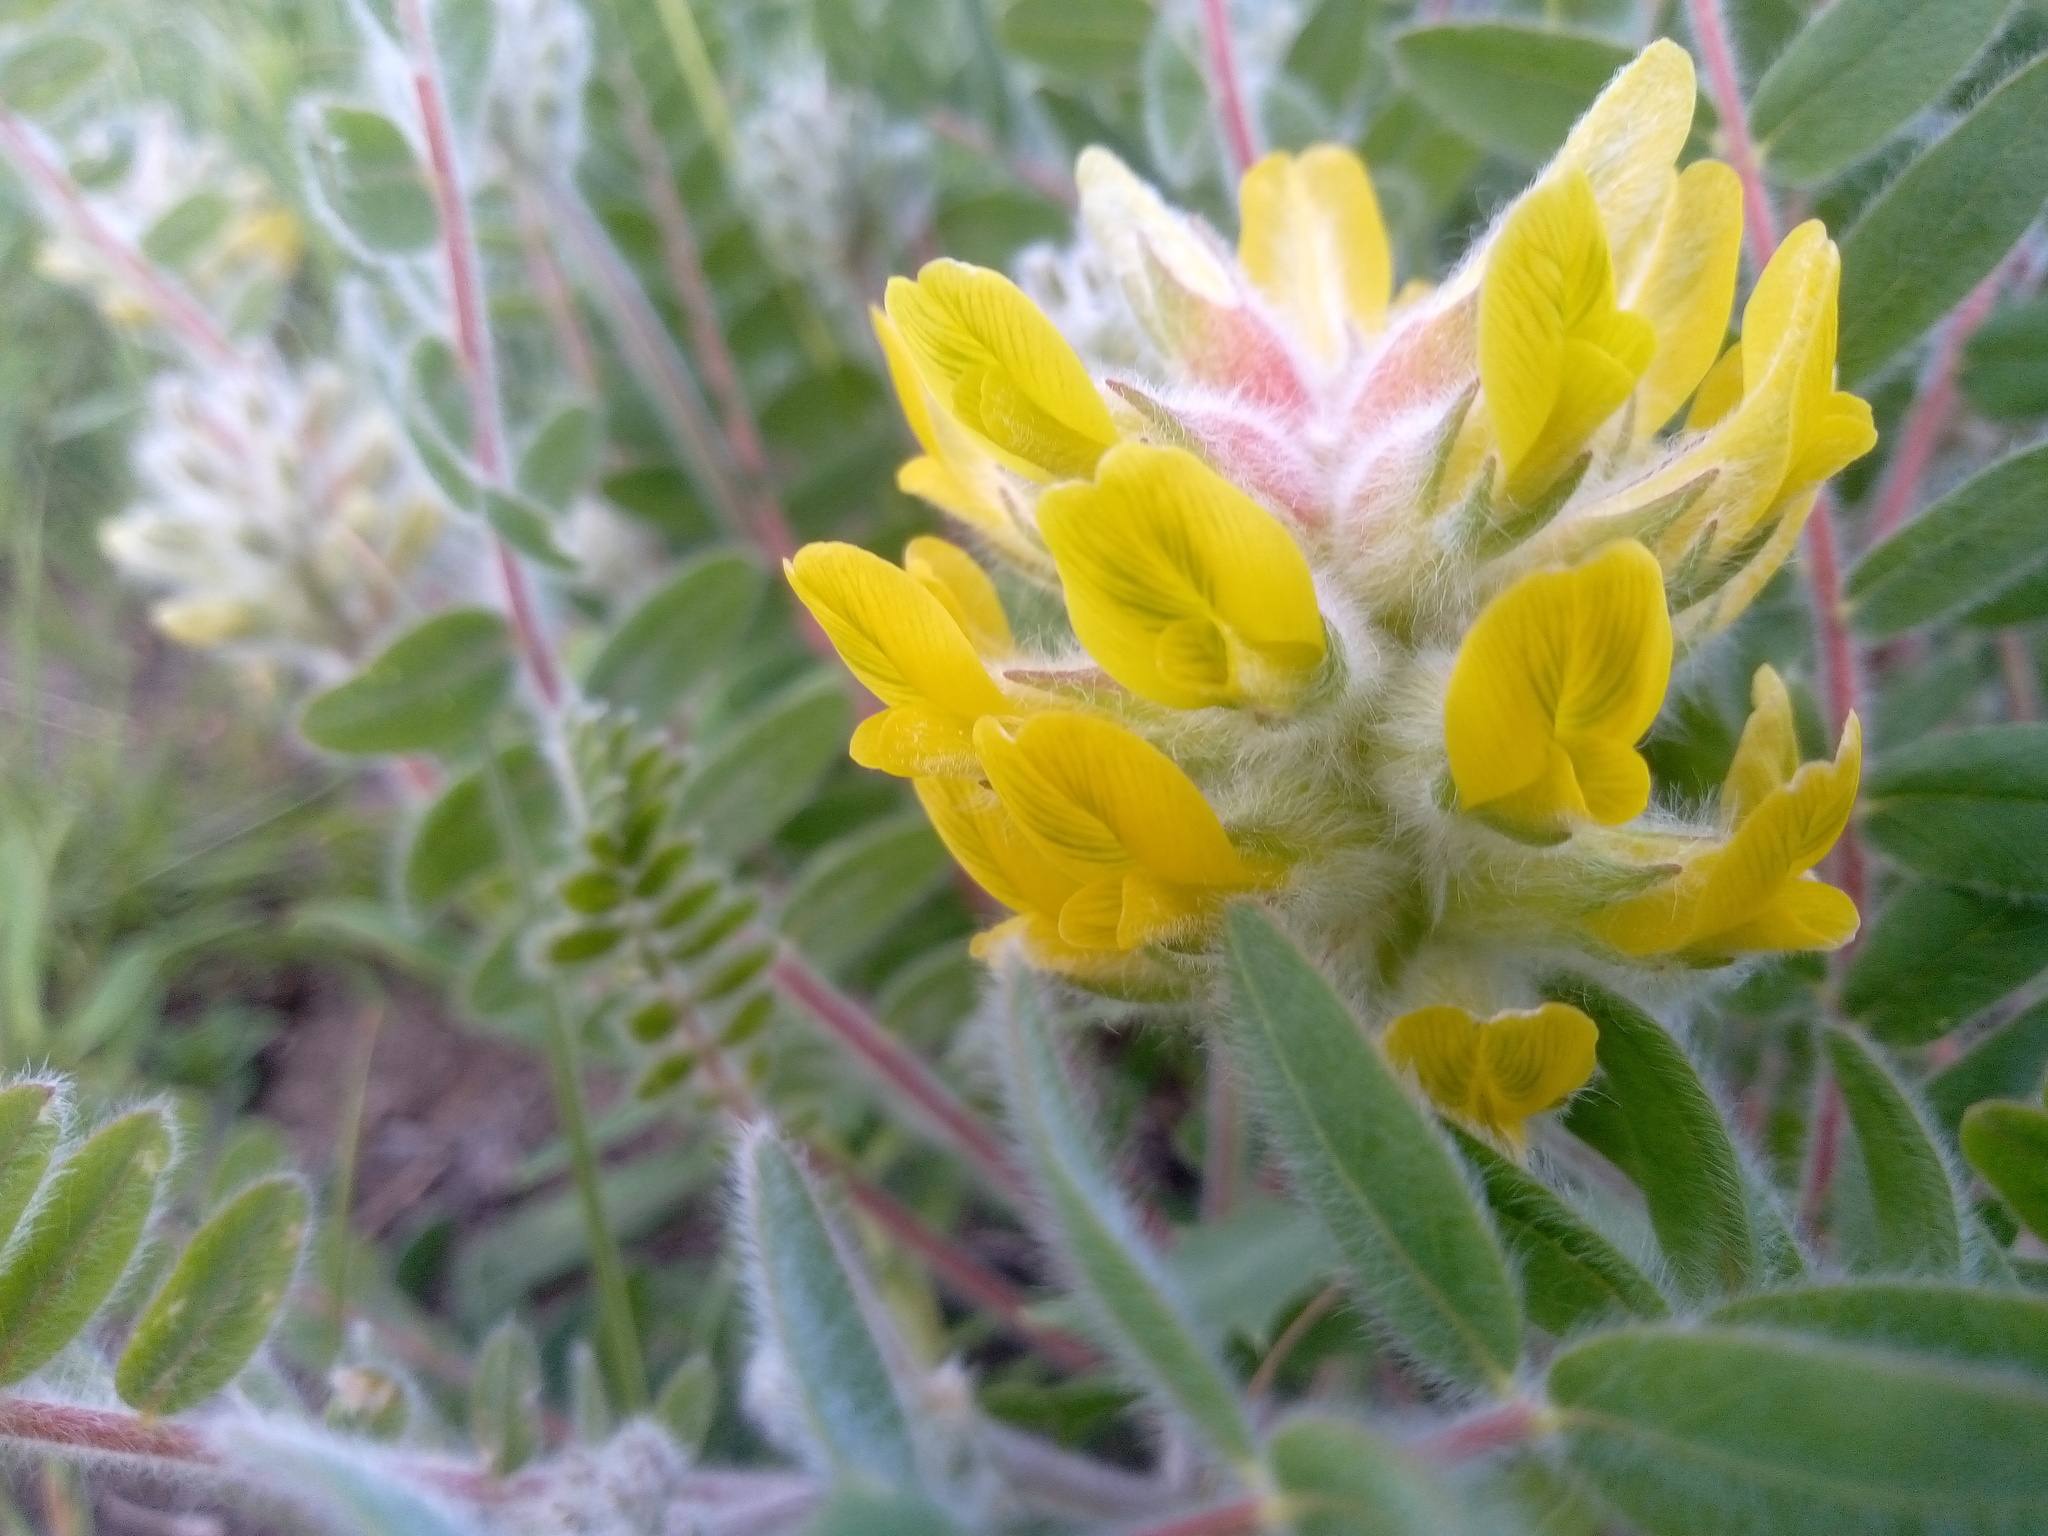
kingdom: Plantae
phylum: Tracheophyta
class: Magnoliopsida
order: Fabales
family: Fabaceae
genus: Astragalus
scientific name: Astragalus dasyanthus
